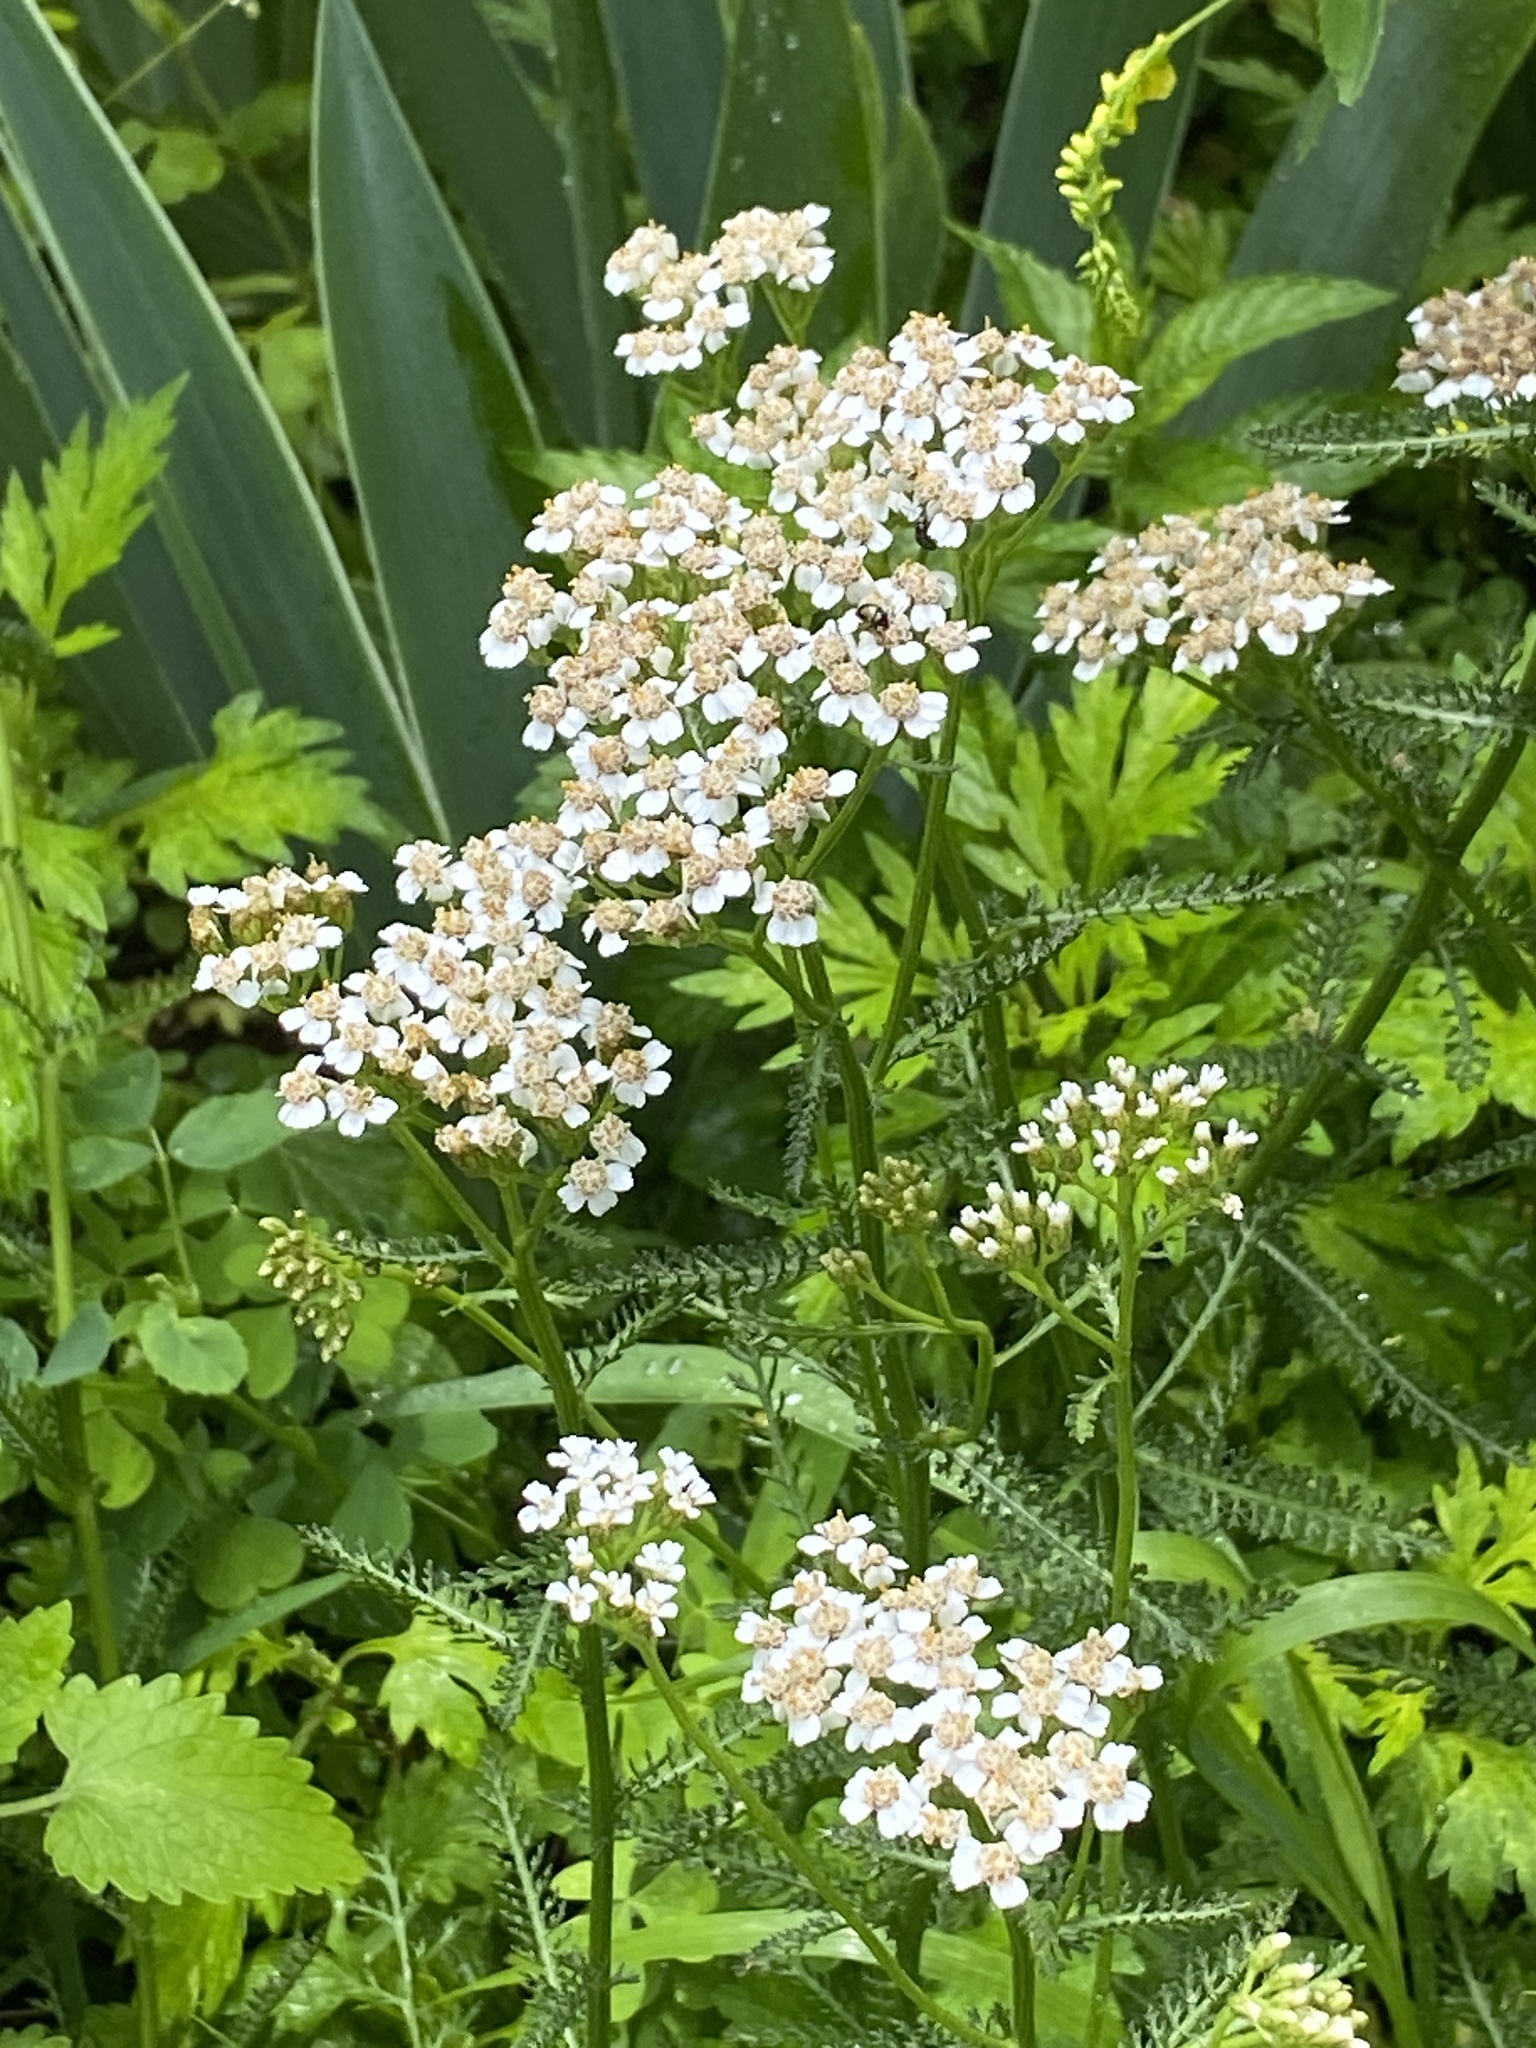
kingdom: Plantae
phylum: Tracheophyta
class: Magnoliopsida
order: Asterales
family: Asteraceae
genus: Achillea
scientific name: Achillea millefolium
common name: Yarrow
